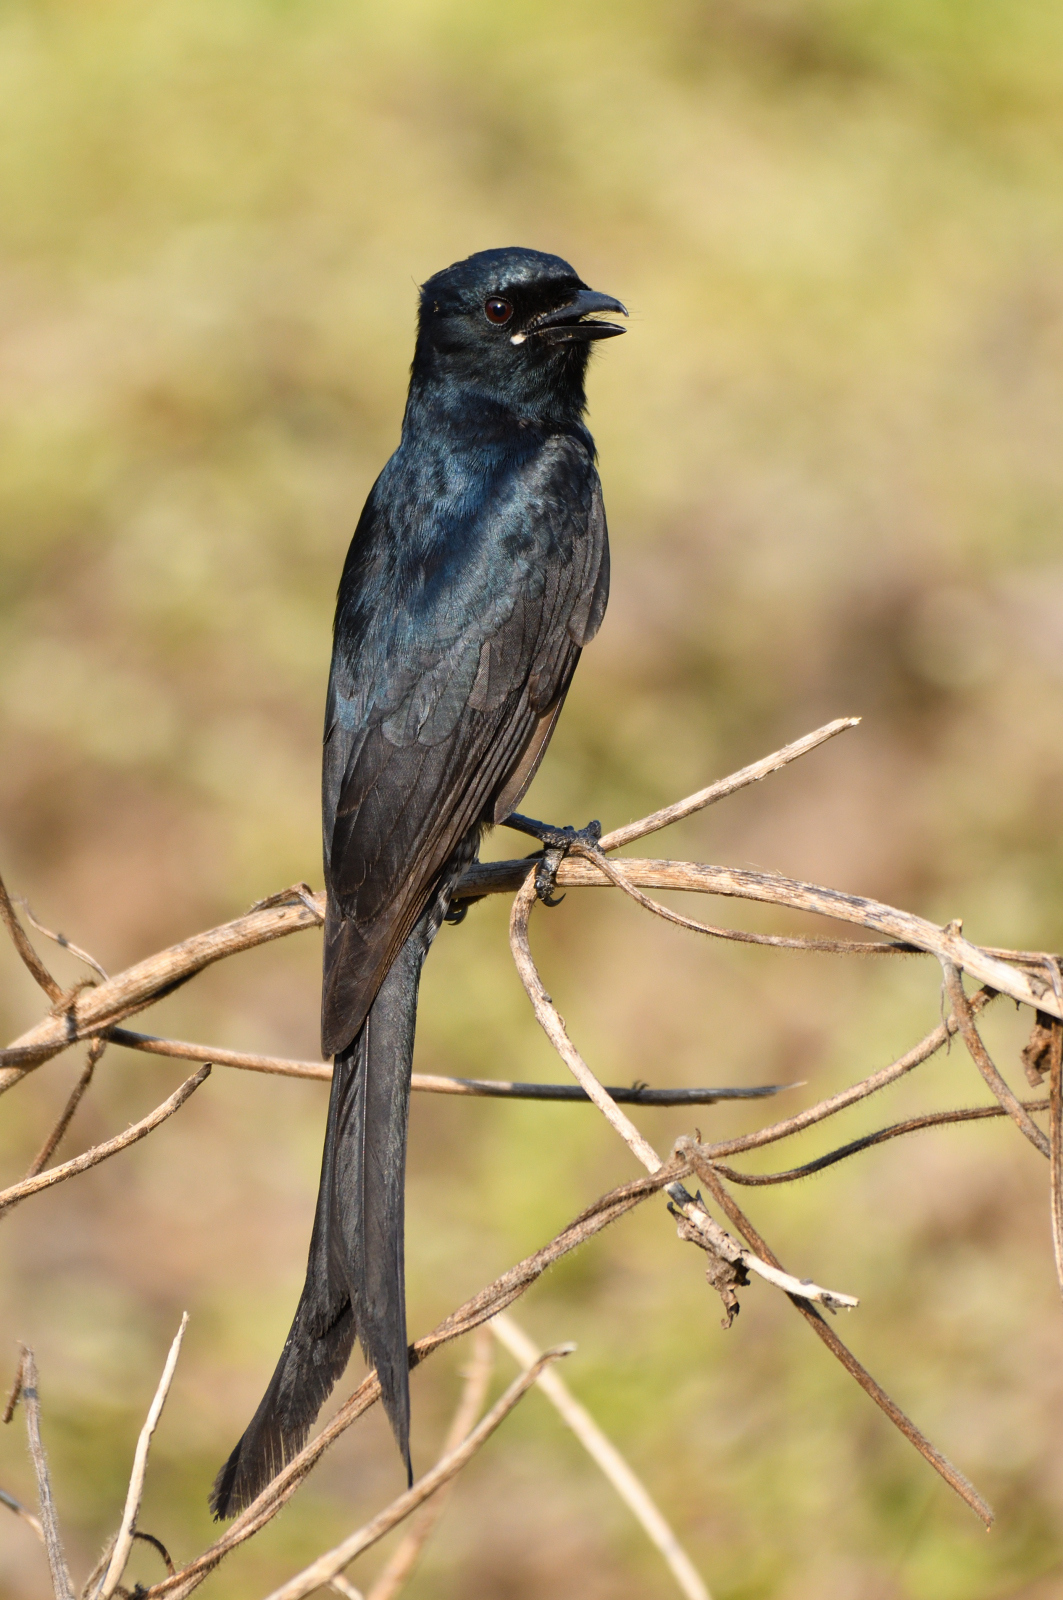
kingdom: Animalia
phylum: Chordata
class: Aves
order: Passeriformes
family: Dicruridae
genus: Dicrurus
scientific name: Dicrurus macrocercus
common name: Black drongo
